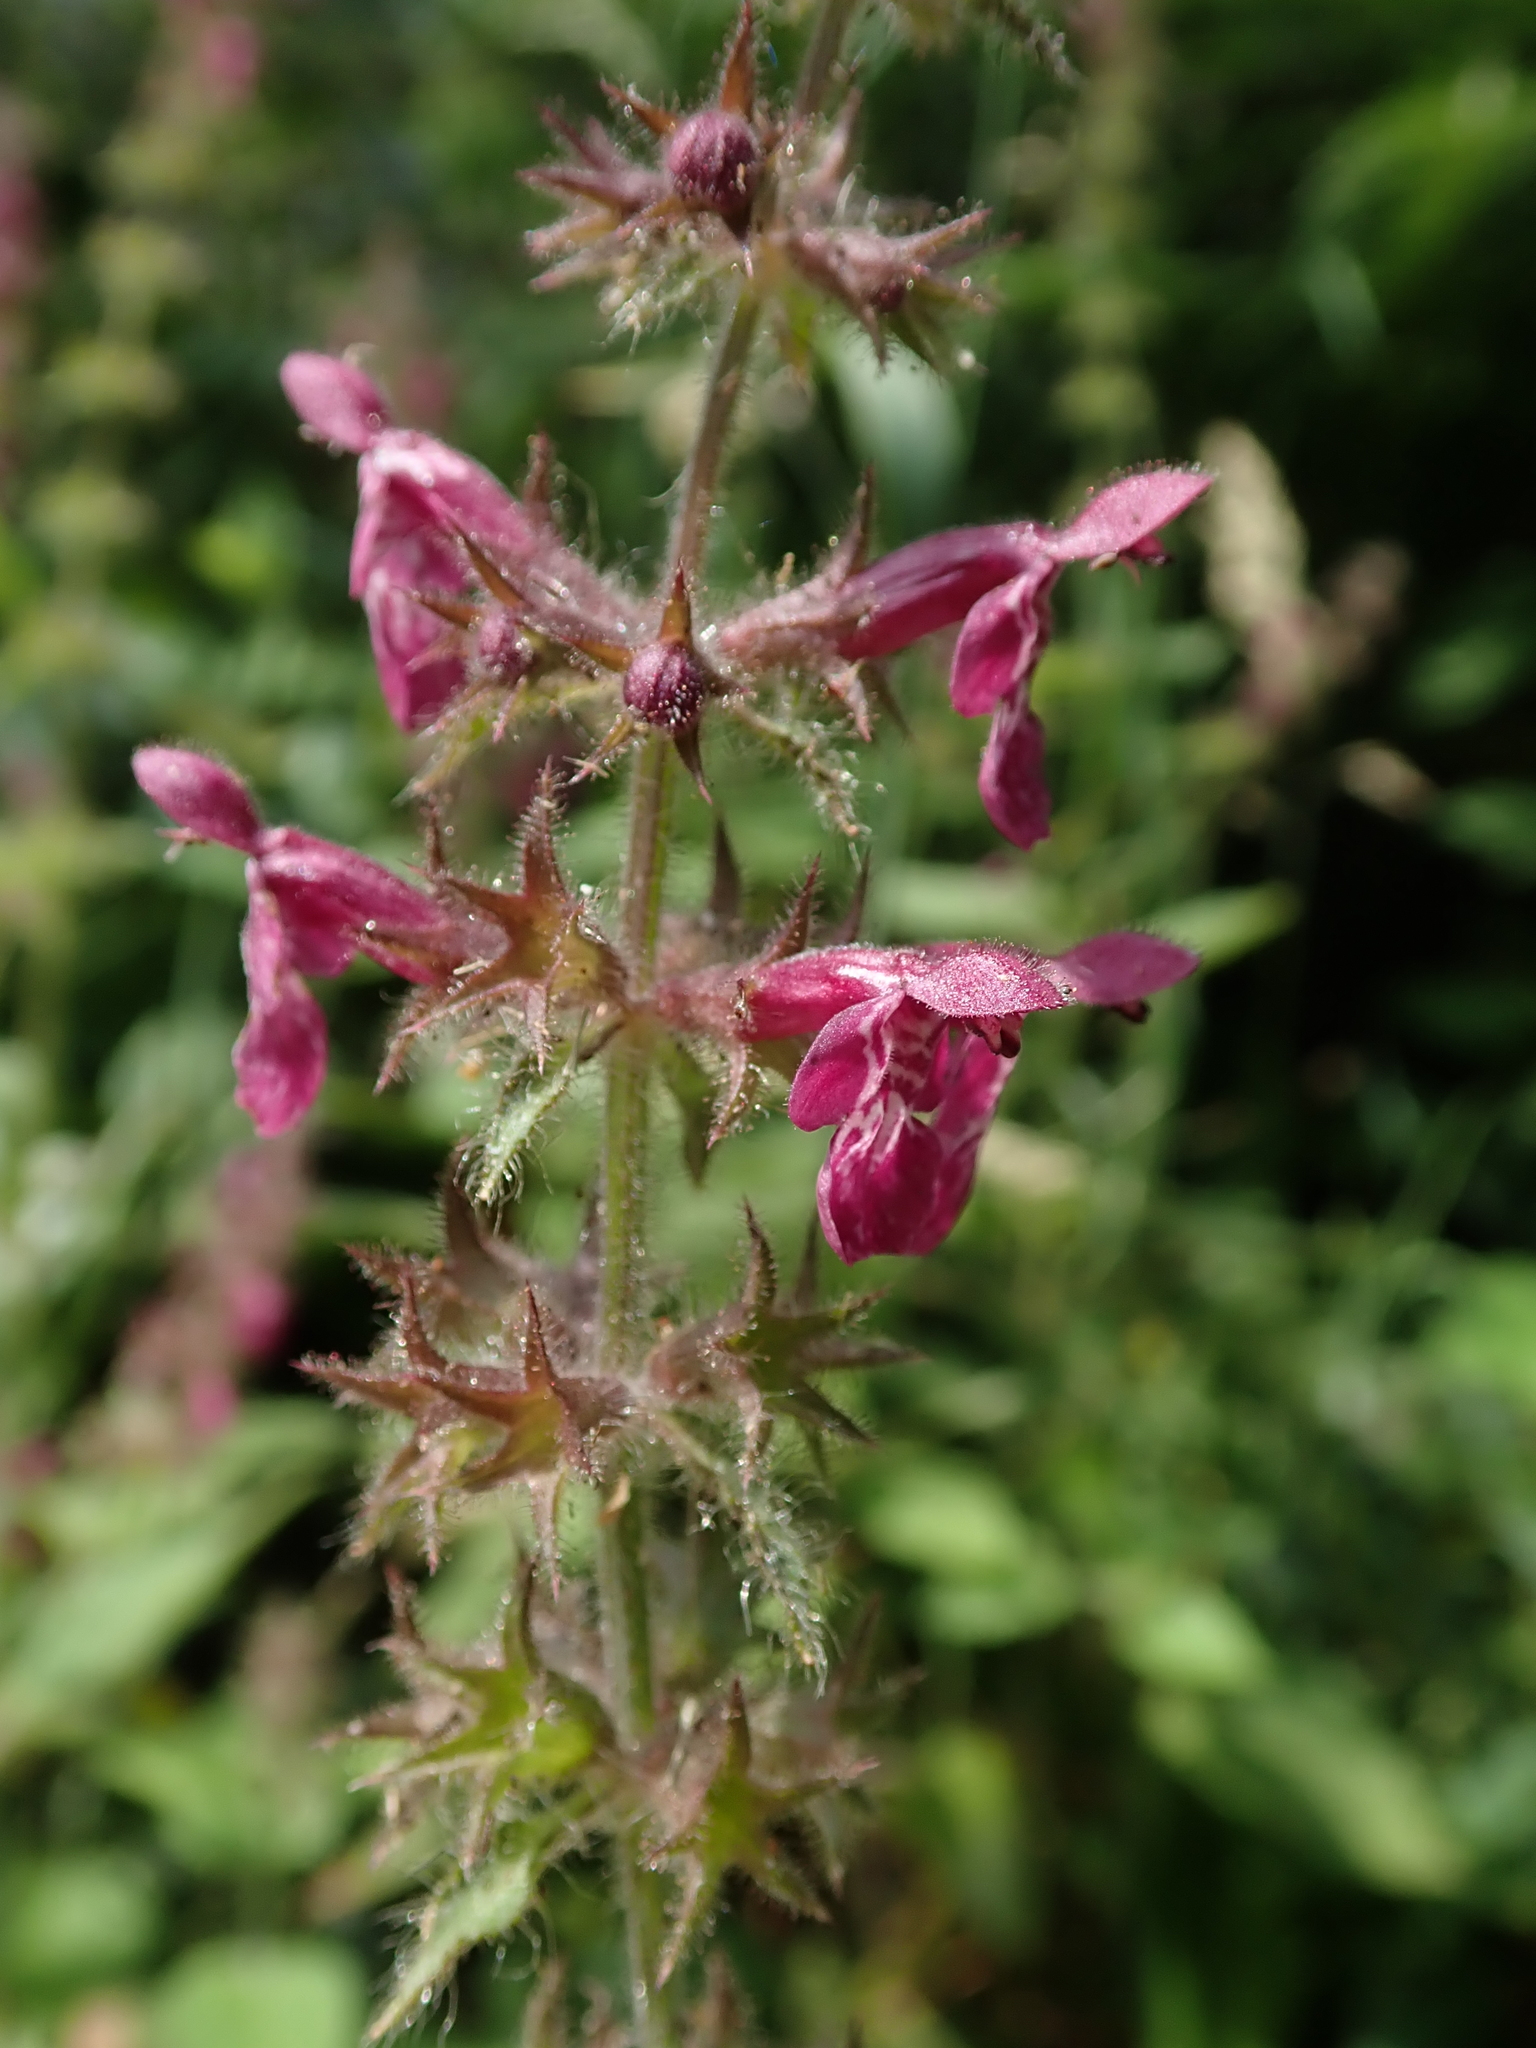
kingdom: Plantae
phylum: Tracheophyta
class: Magnoliopsida
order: Lamiales
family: Lamiaceae
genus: Stachys
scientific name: Stachys sylvatica
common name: Hedge woundwort
